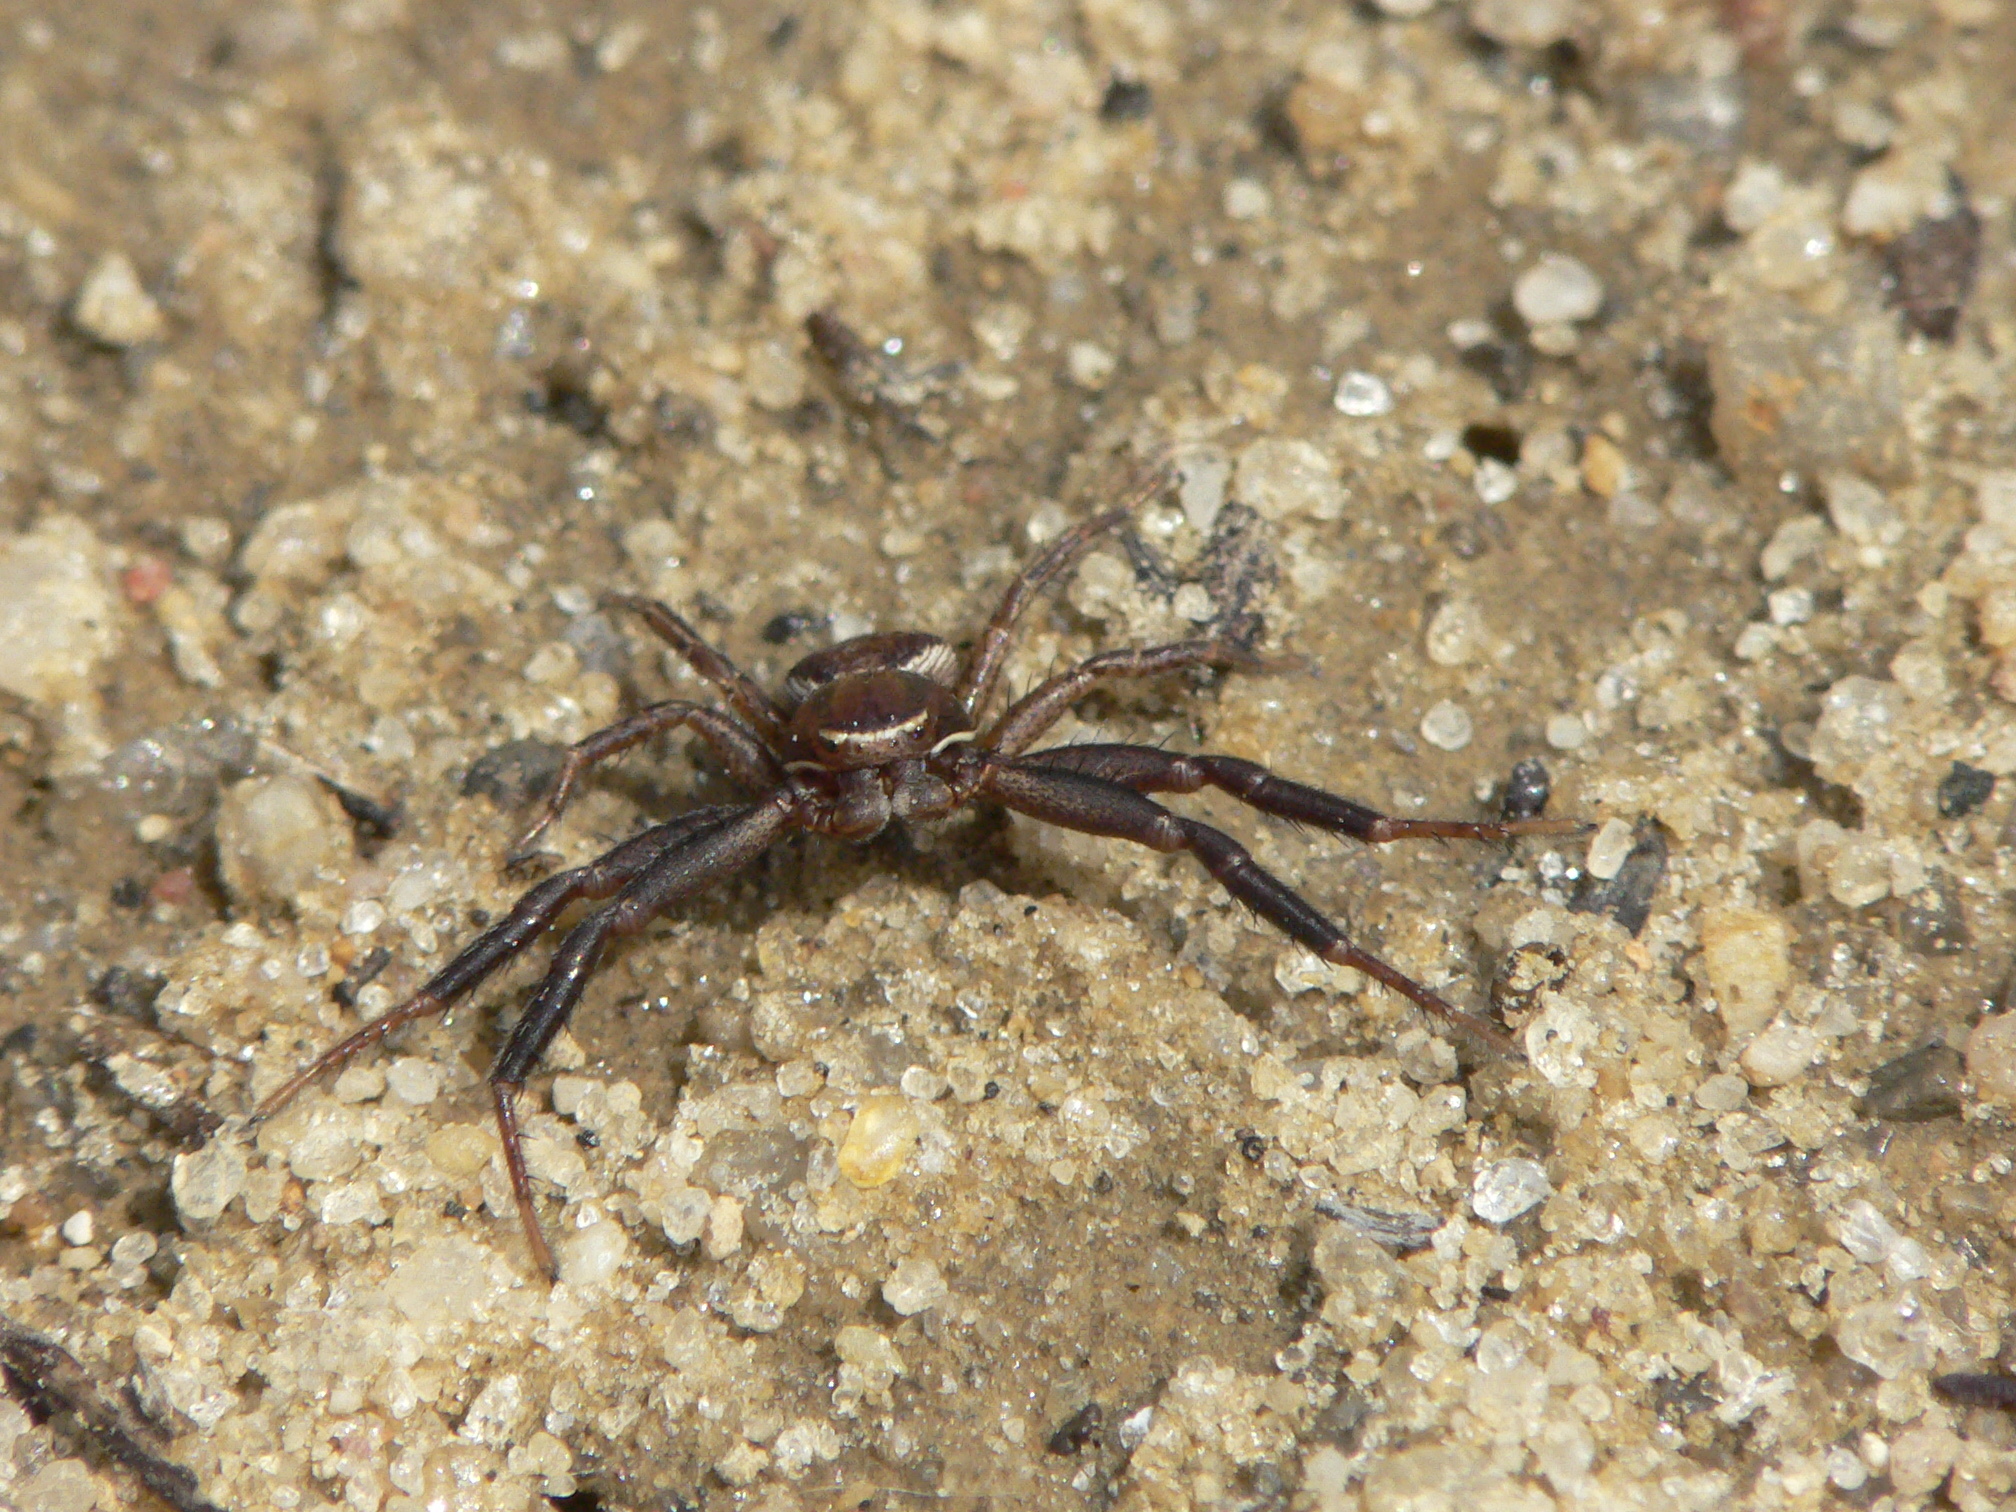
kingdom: Animalia
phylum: Arthropoda
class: Arachnida
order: Araneae
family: Thomisidae
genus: Xysticus
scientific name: Xysticus
